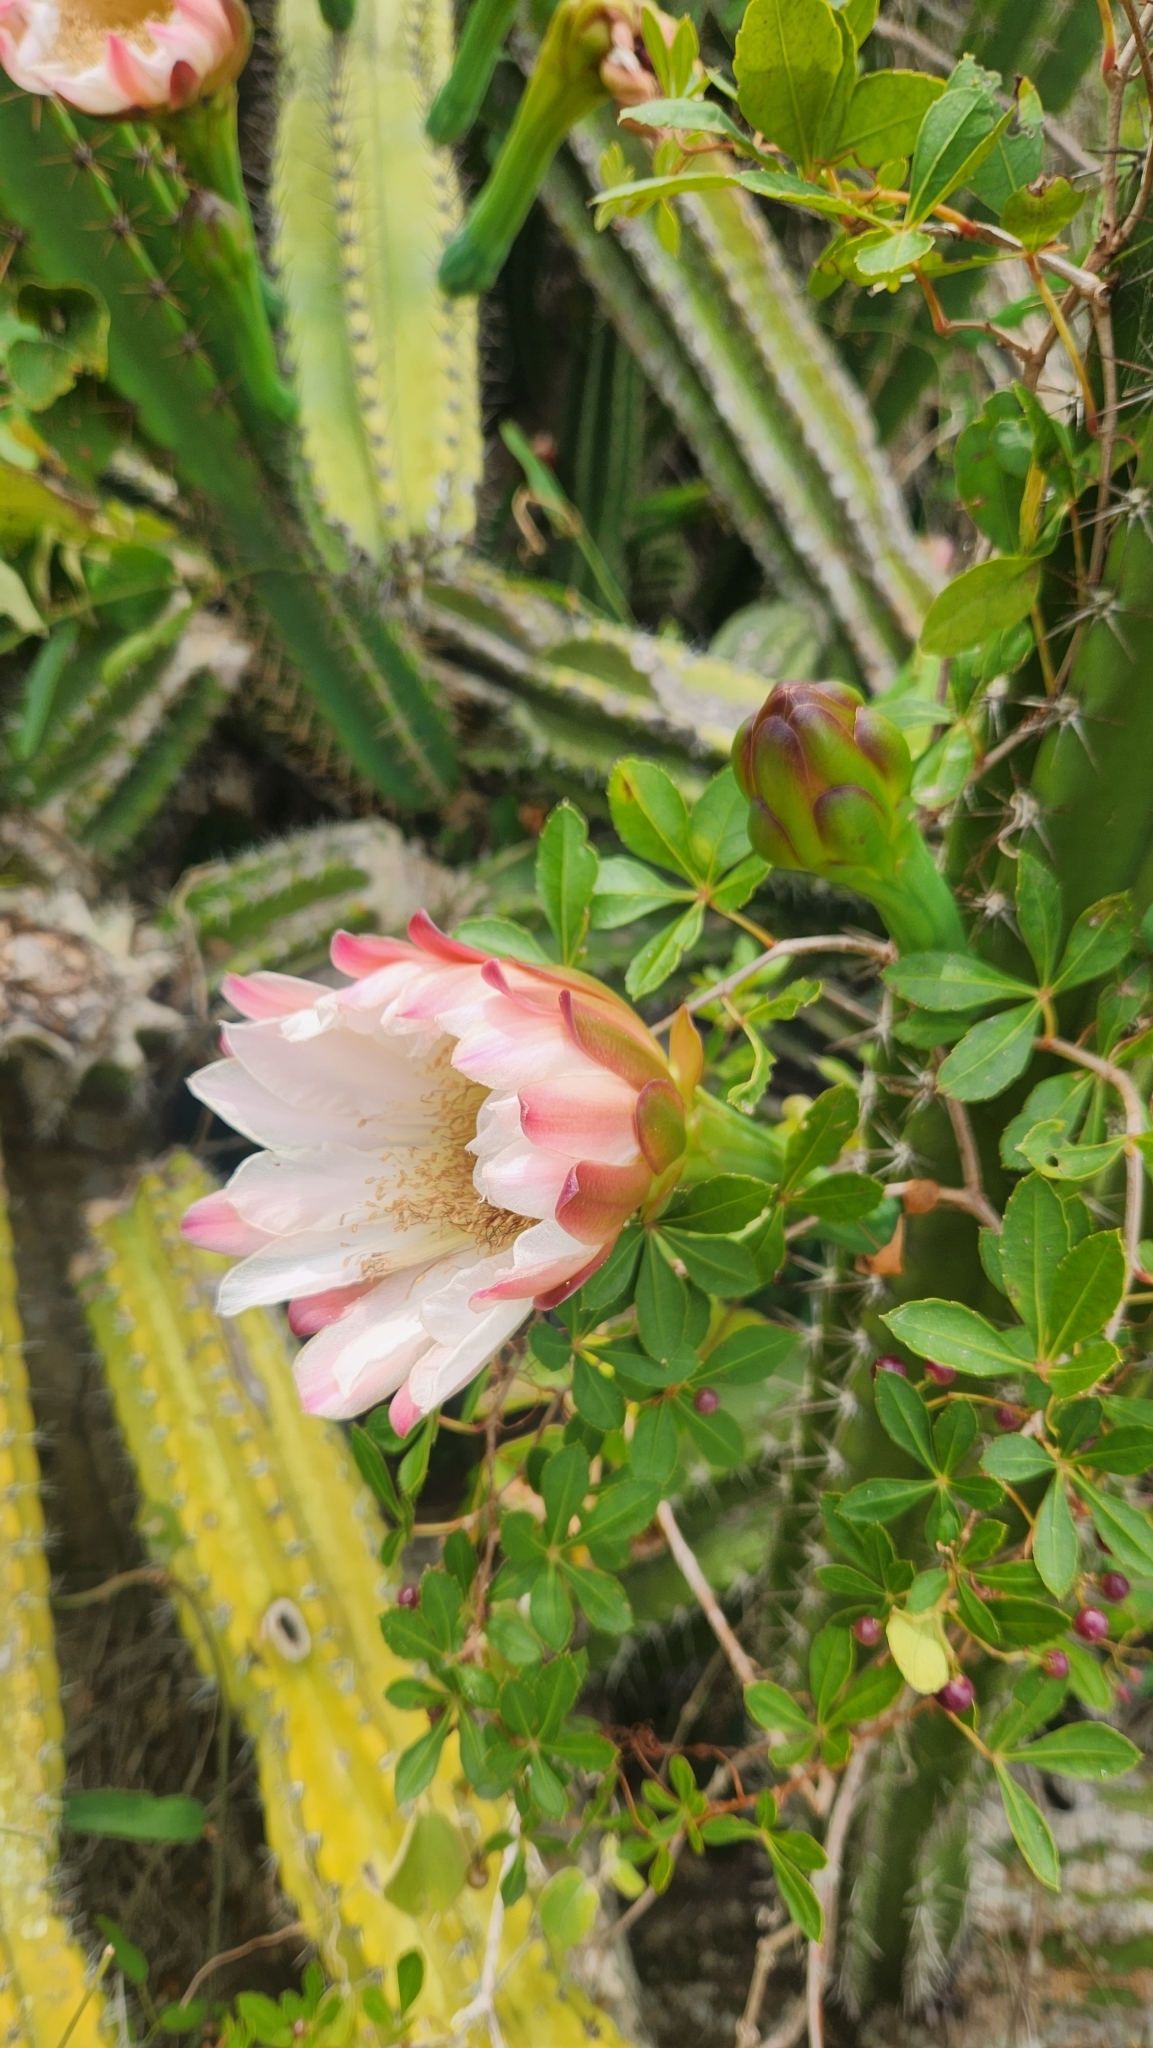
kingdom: Plantae
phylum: Tracheophyta
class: Magnoliopsida
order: Caryophyllales
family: Cactaceae
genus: Cereus
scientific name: Cereus hildmannianus
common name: Hedge cactus
